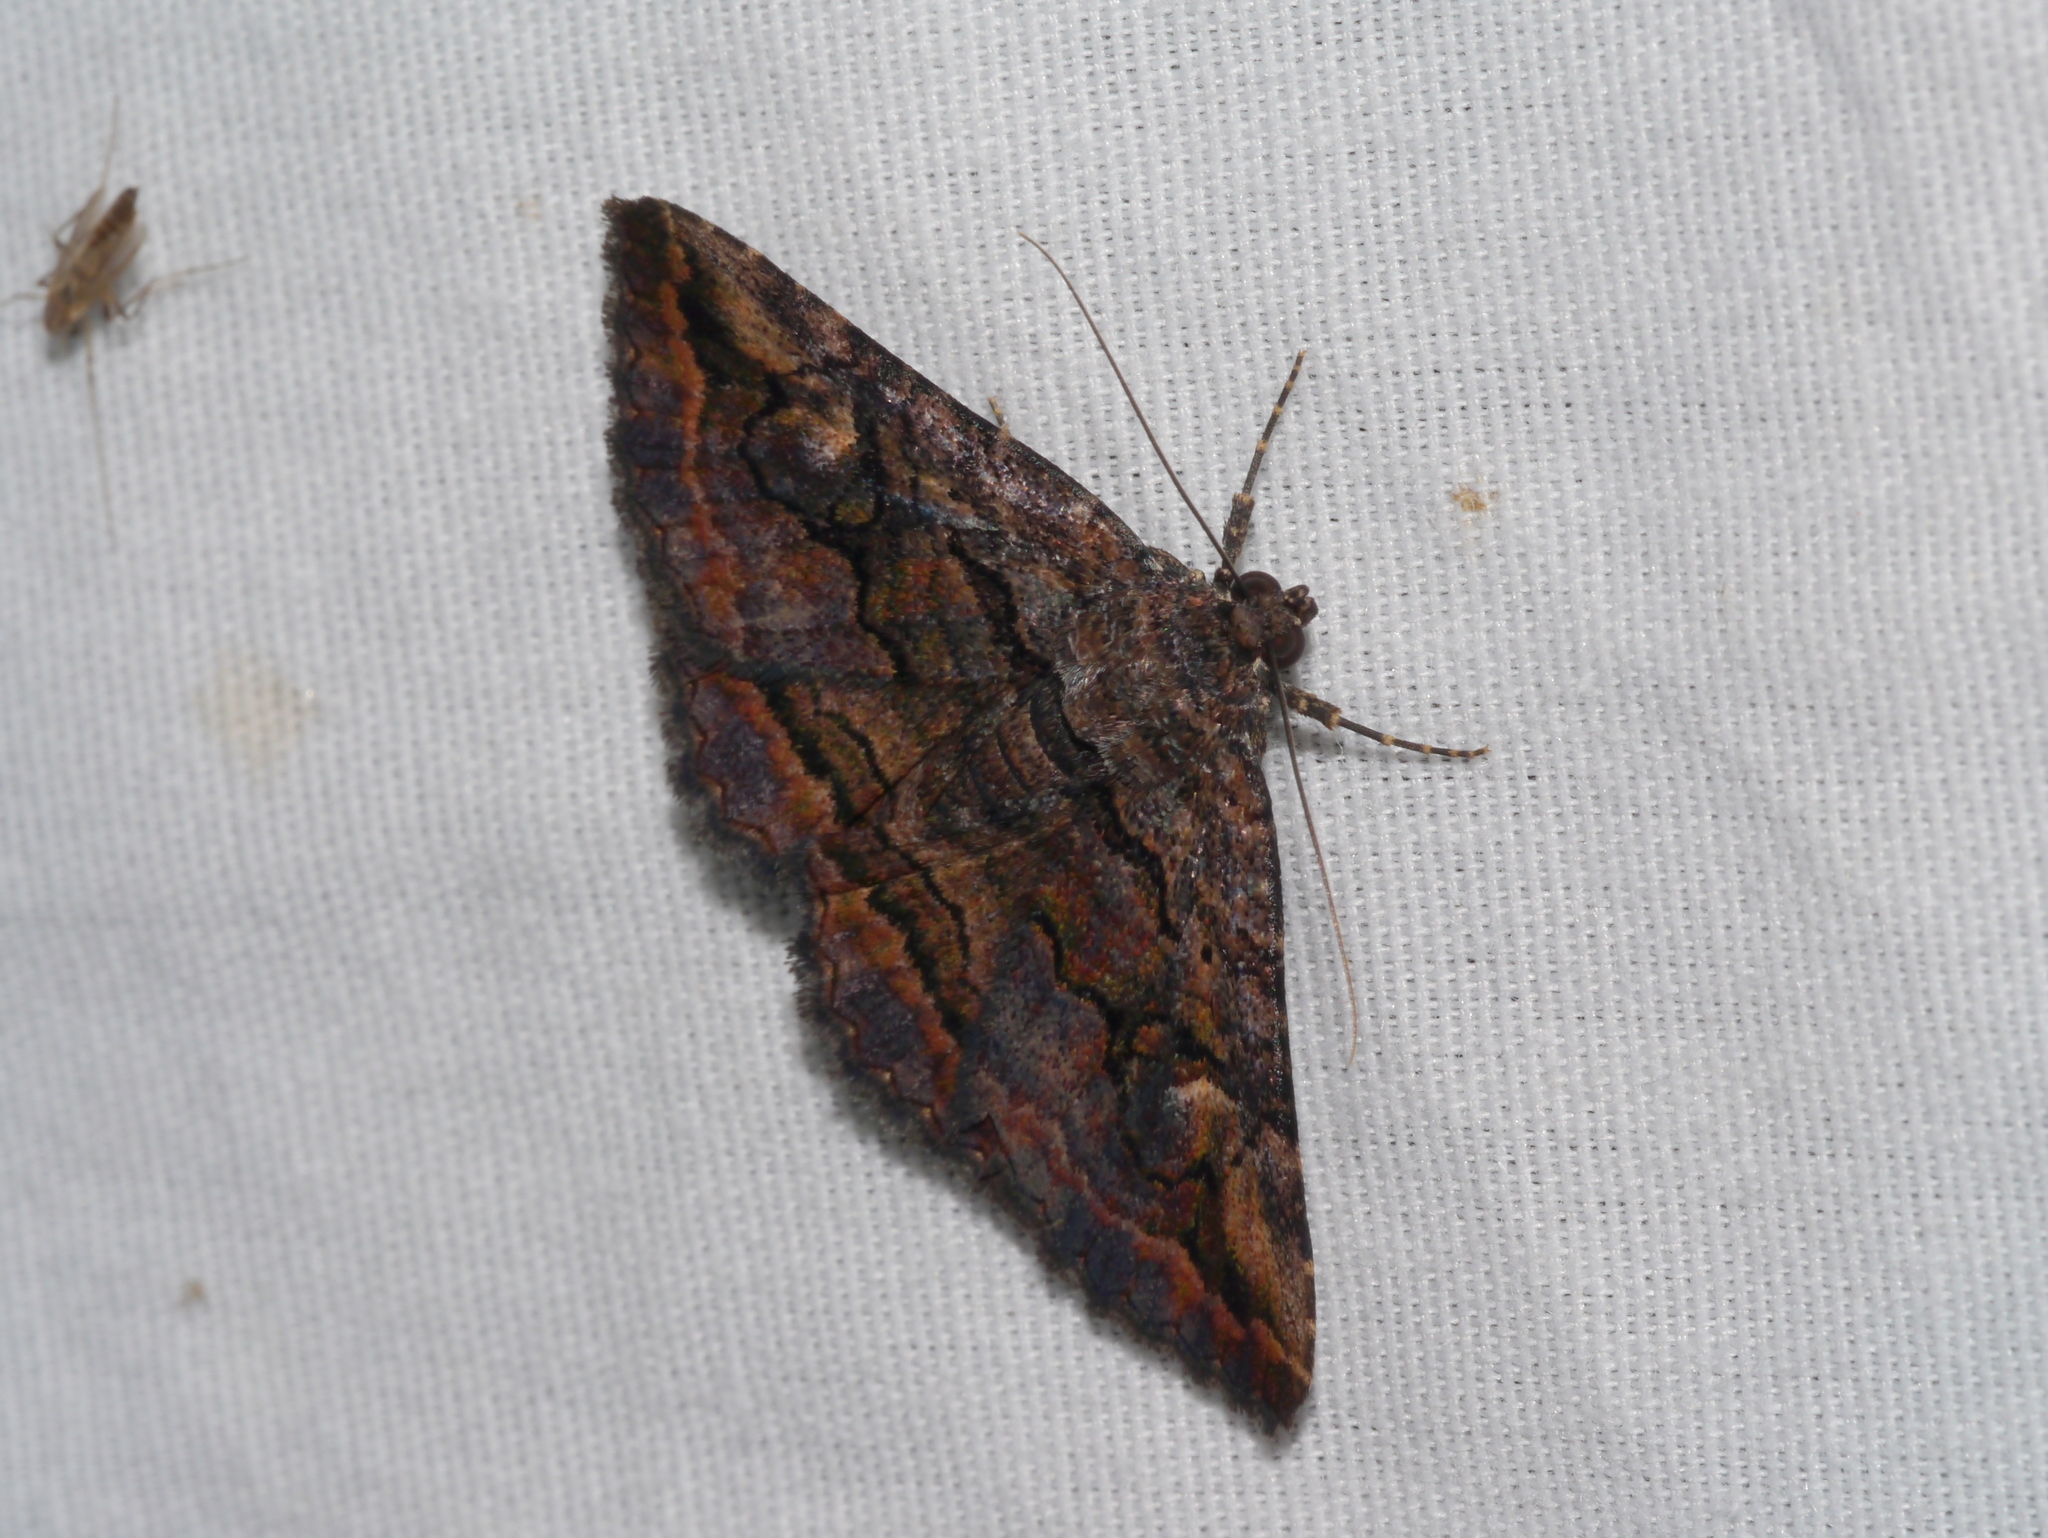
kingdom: Animalia
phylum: Arthropoda
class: Insecta
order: Lepidoptera
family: Erebidae
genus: Zaleops
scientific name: Zaleops umbrina
